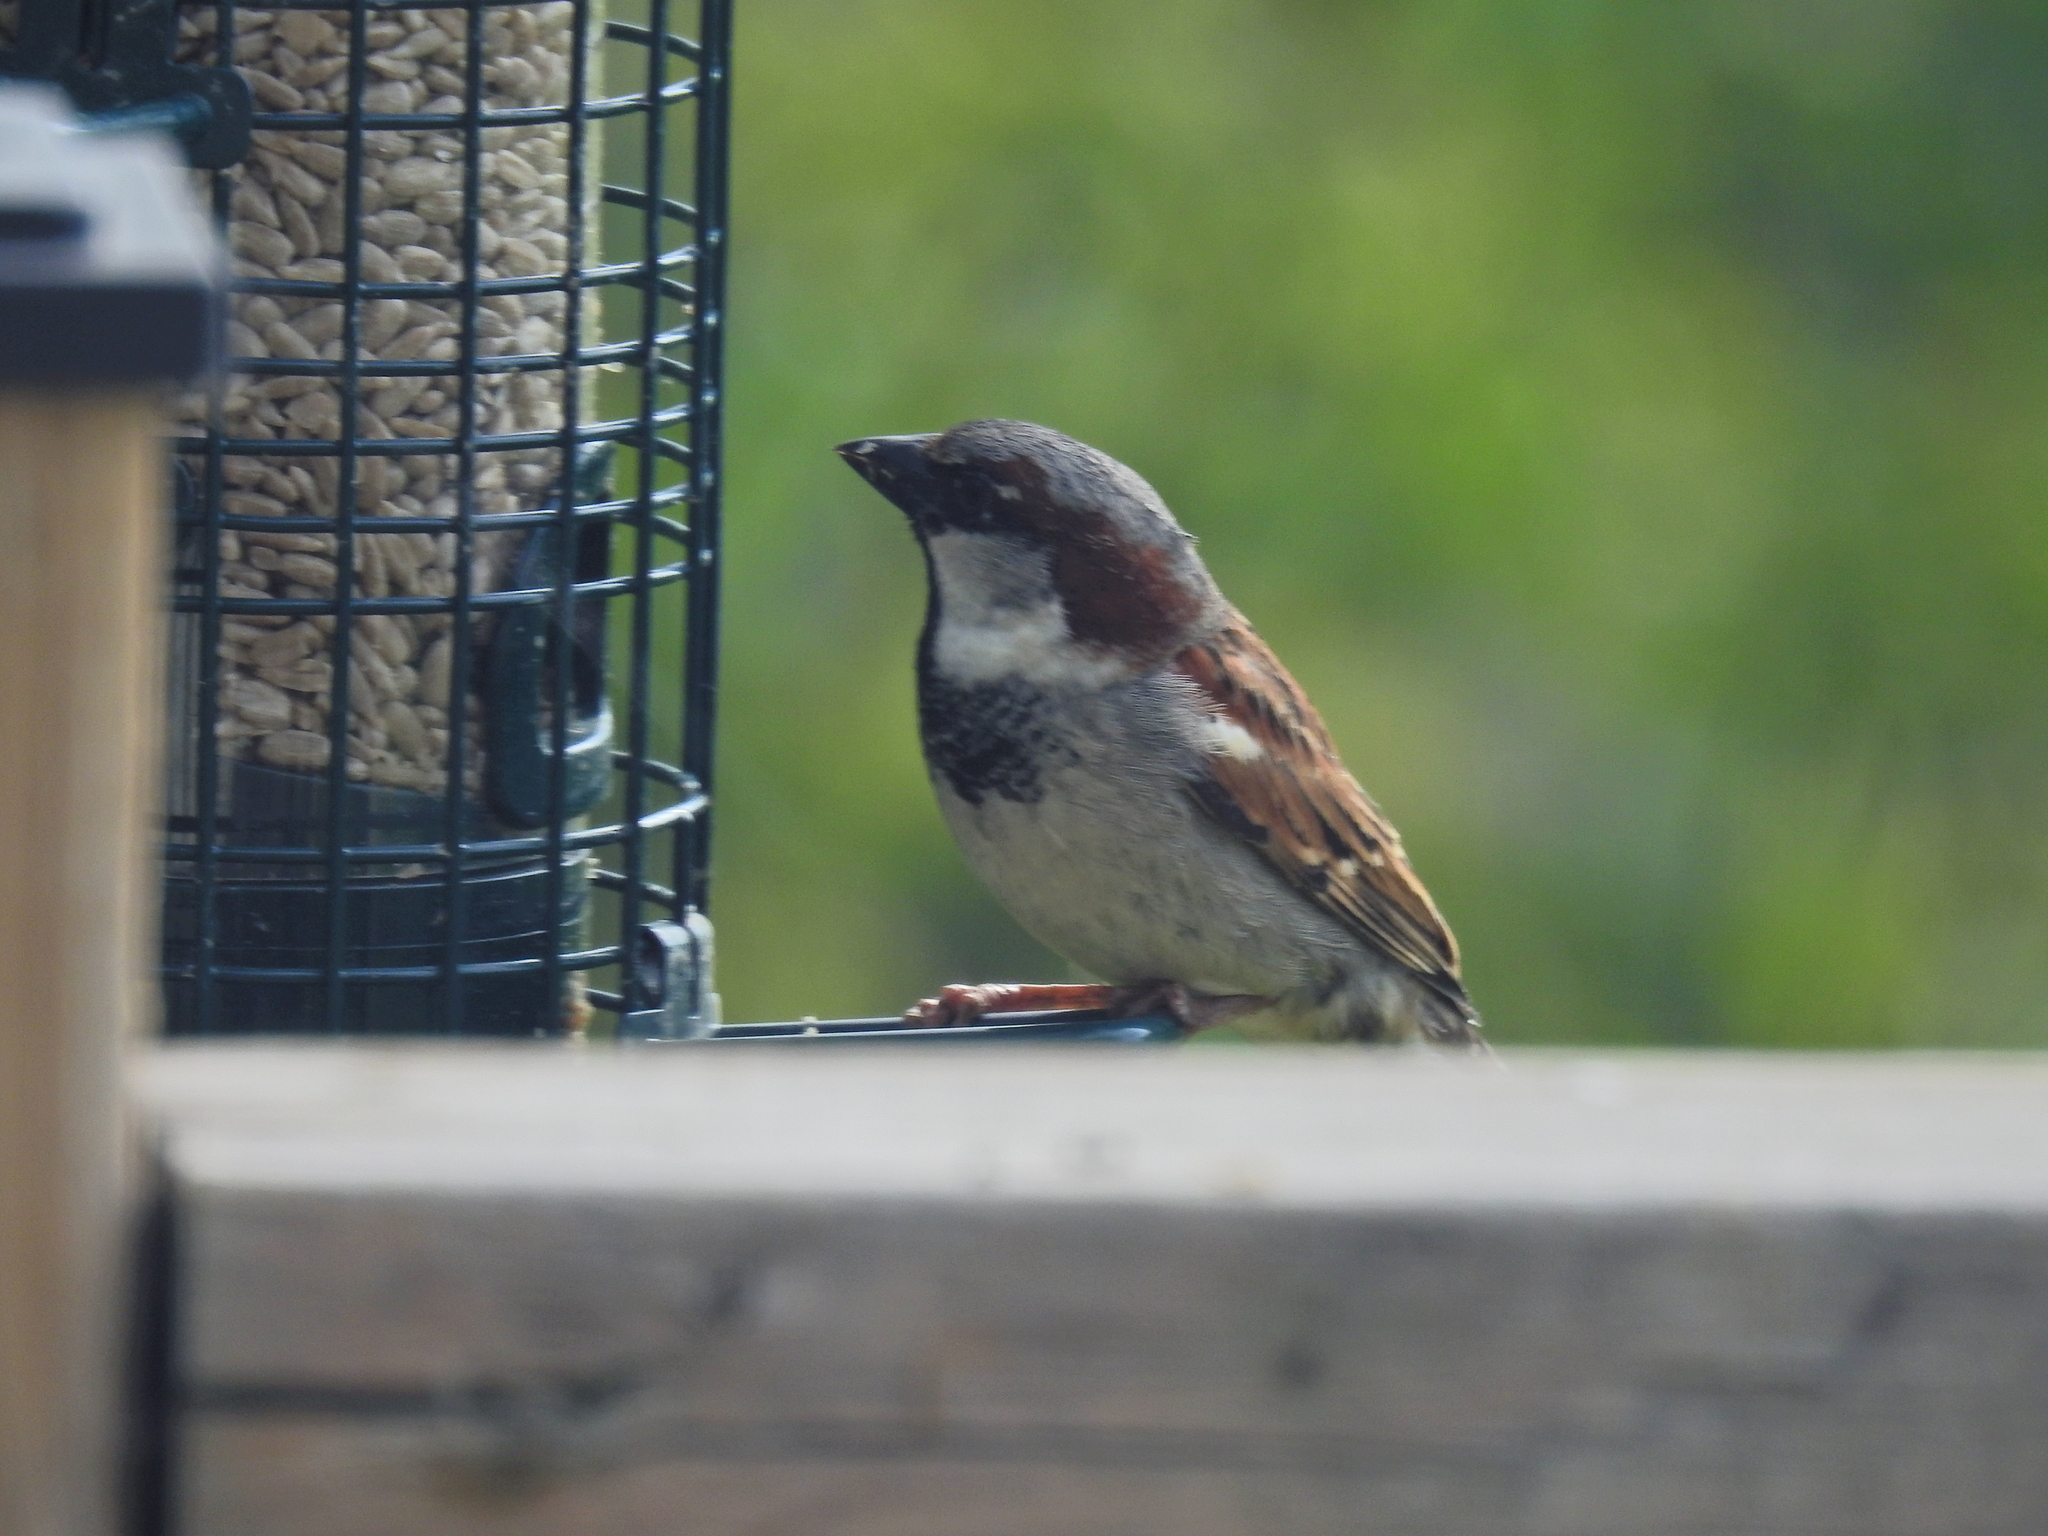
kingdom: Animalia
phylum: Chordata
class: Aves
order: Passeriformes
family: Passeridae
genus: Passer
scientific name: Passer domesticus
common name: House sparrow
